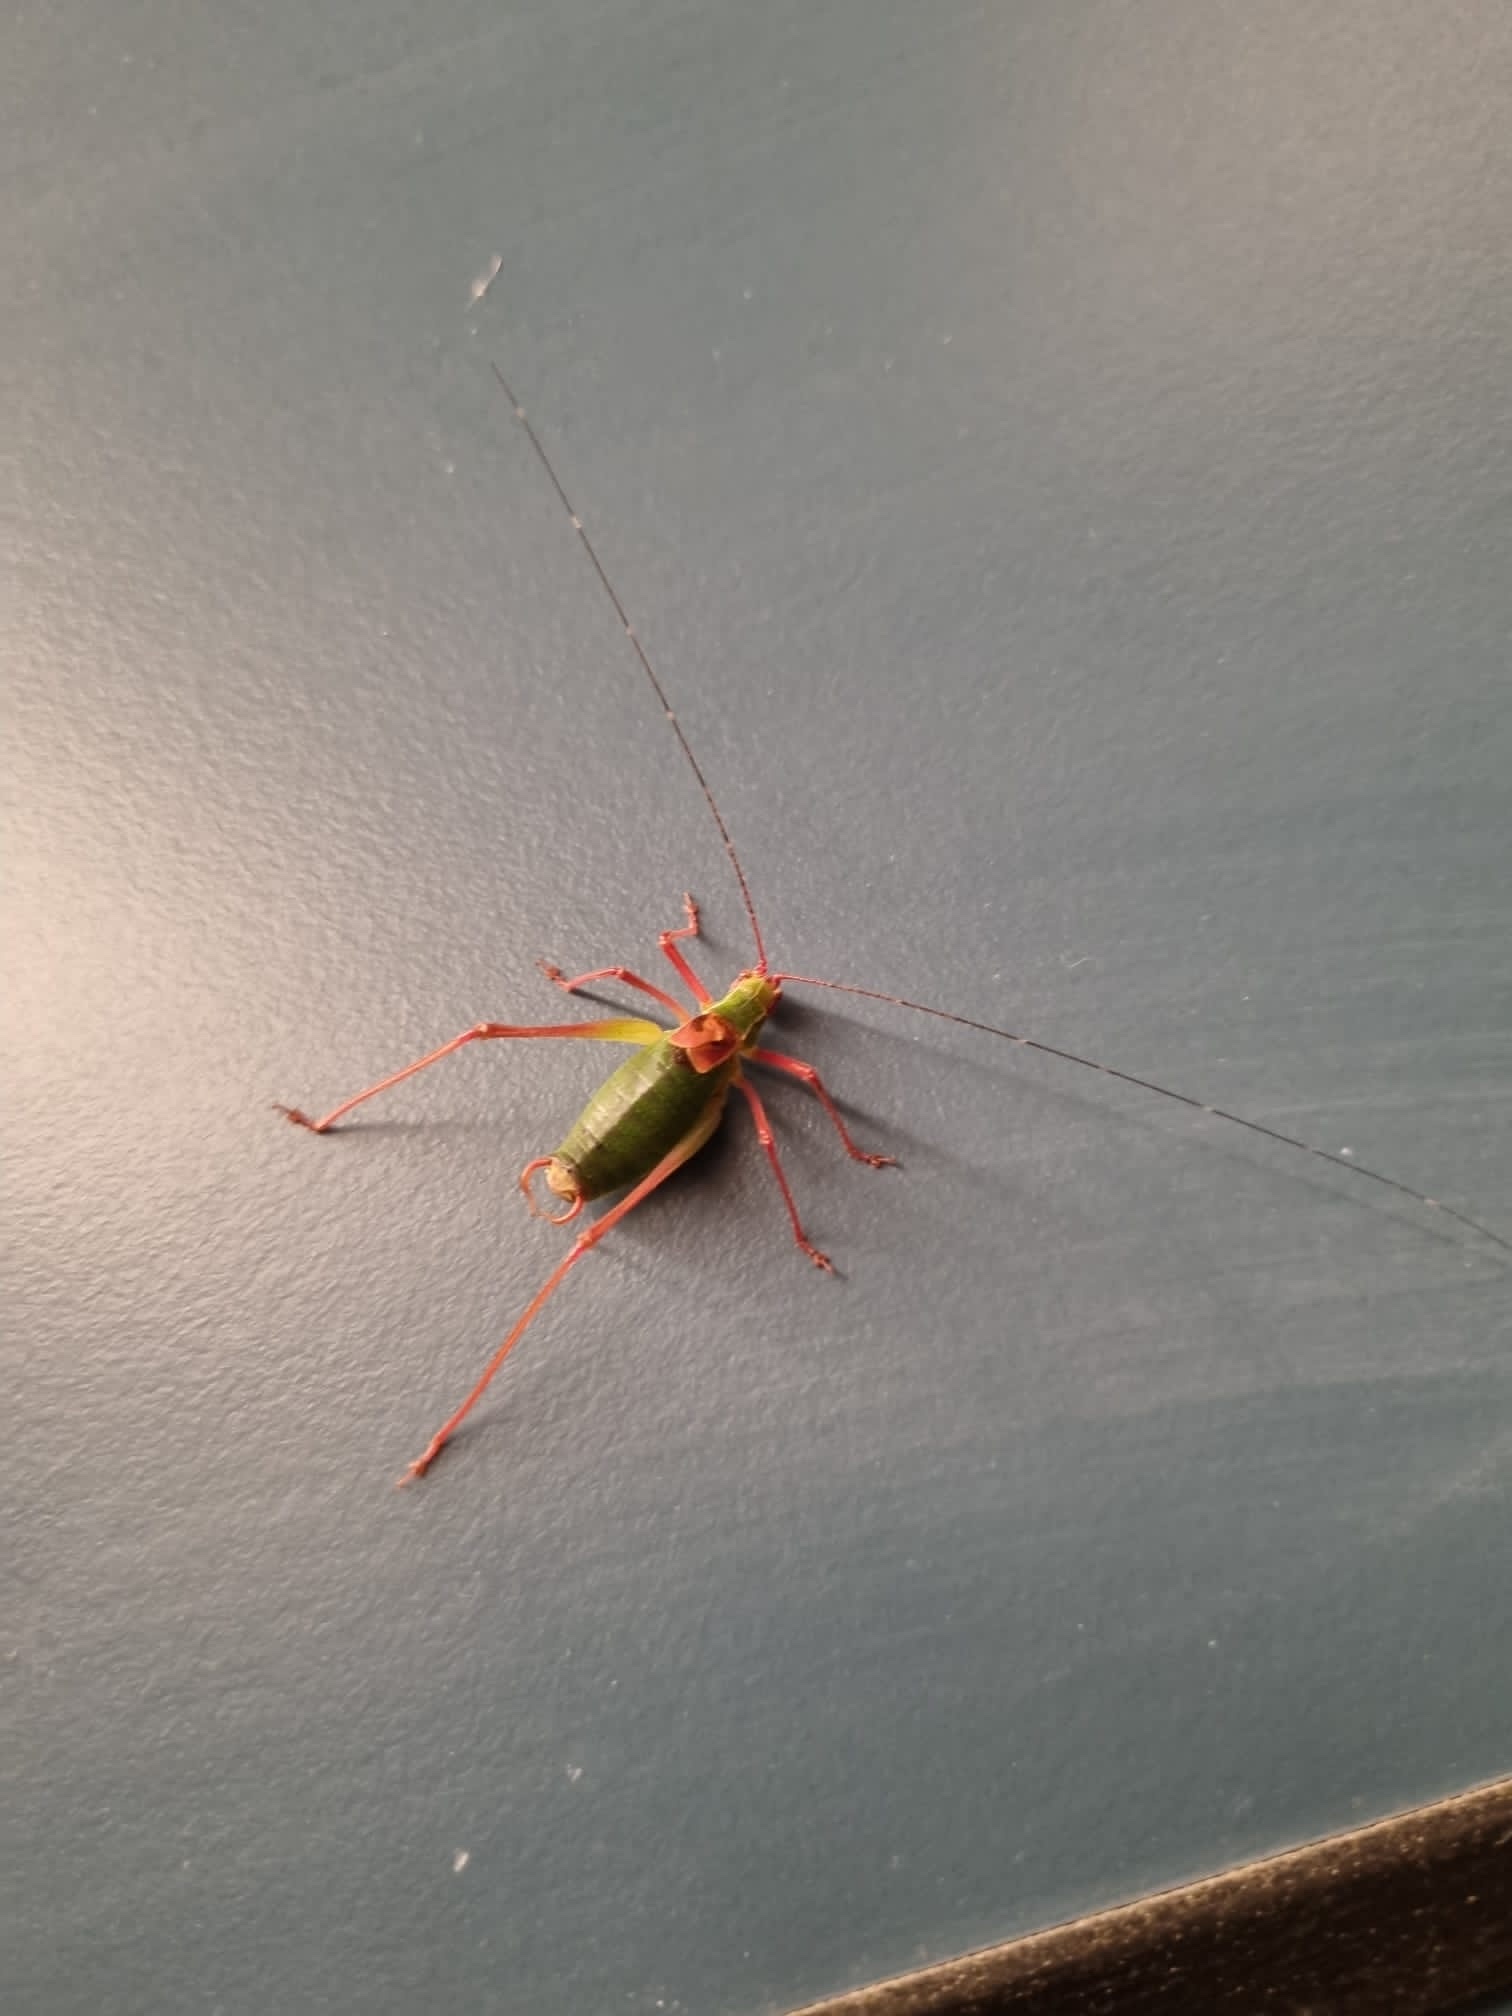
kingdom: Animalia
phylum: Arthropoda
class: Insecta
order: Orthoptera
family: Tettigoniidae
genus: Barbitistes
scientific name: Barbitistes serricauda
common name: Saw-tailed bush-cricket
